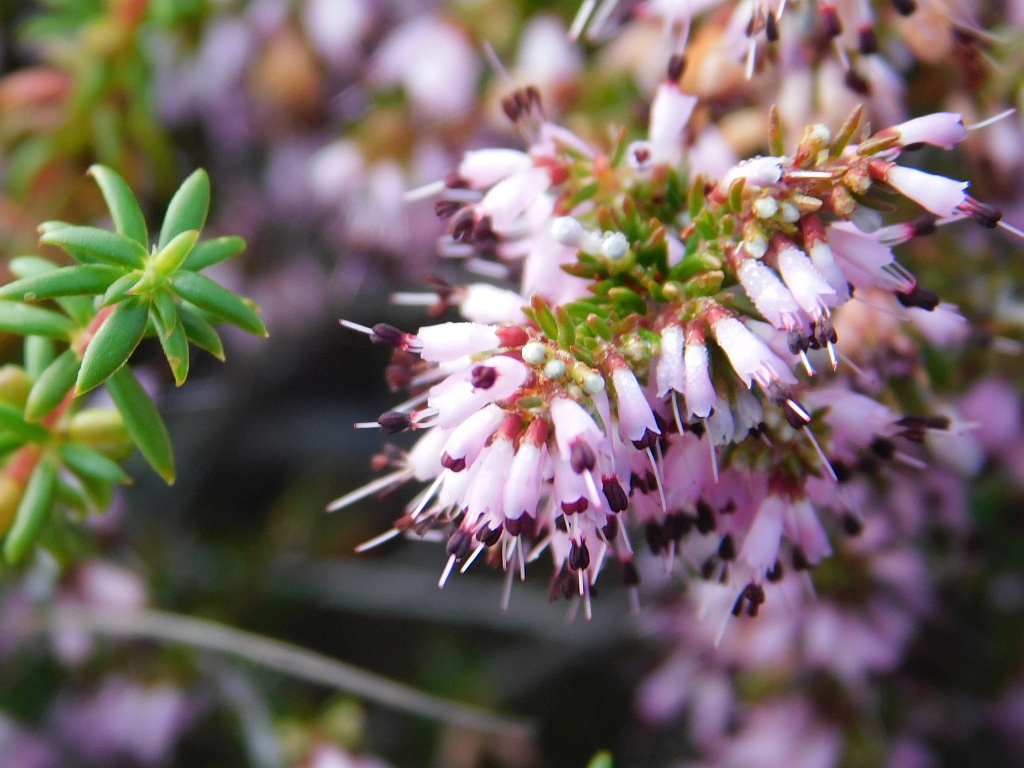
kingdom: Plantae
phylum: Tracheophyta
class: Magnoliopsida
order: Ericales
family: Ericaceae
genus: Erica
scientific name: Erica nudiflora
